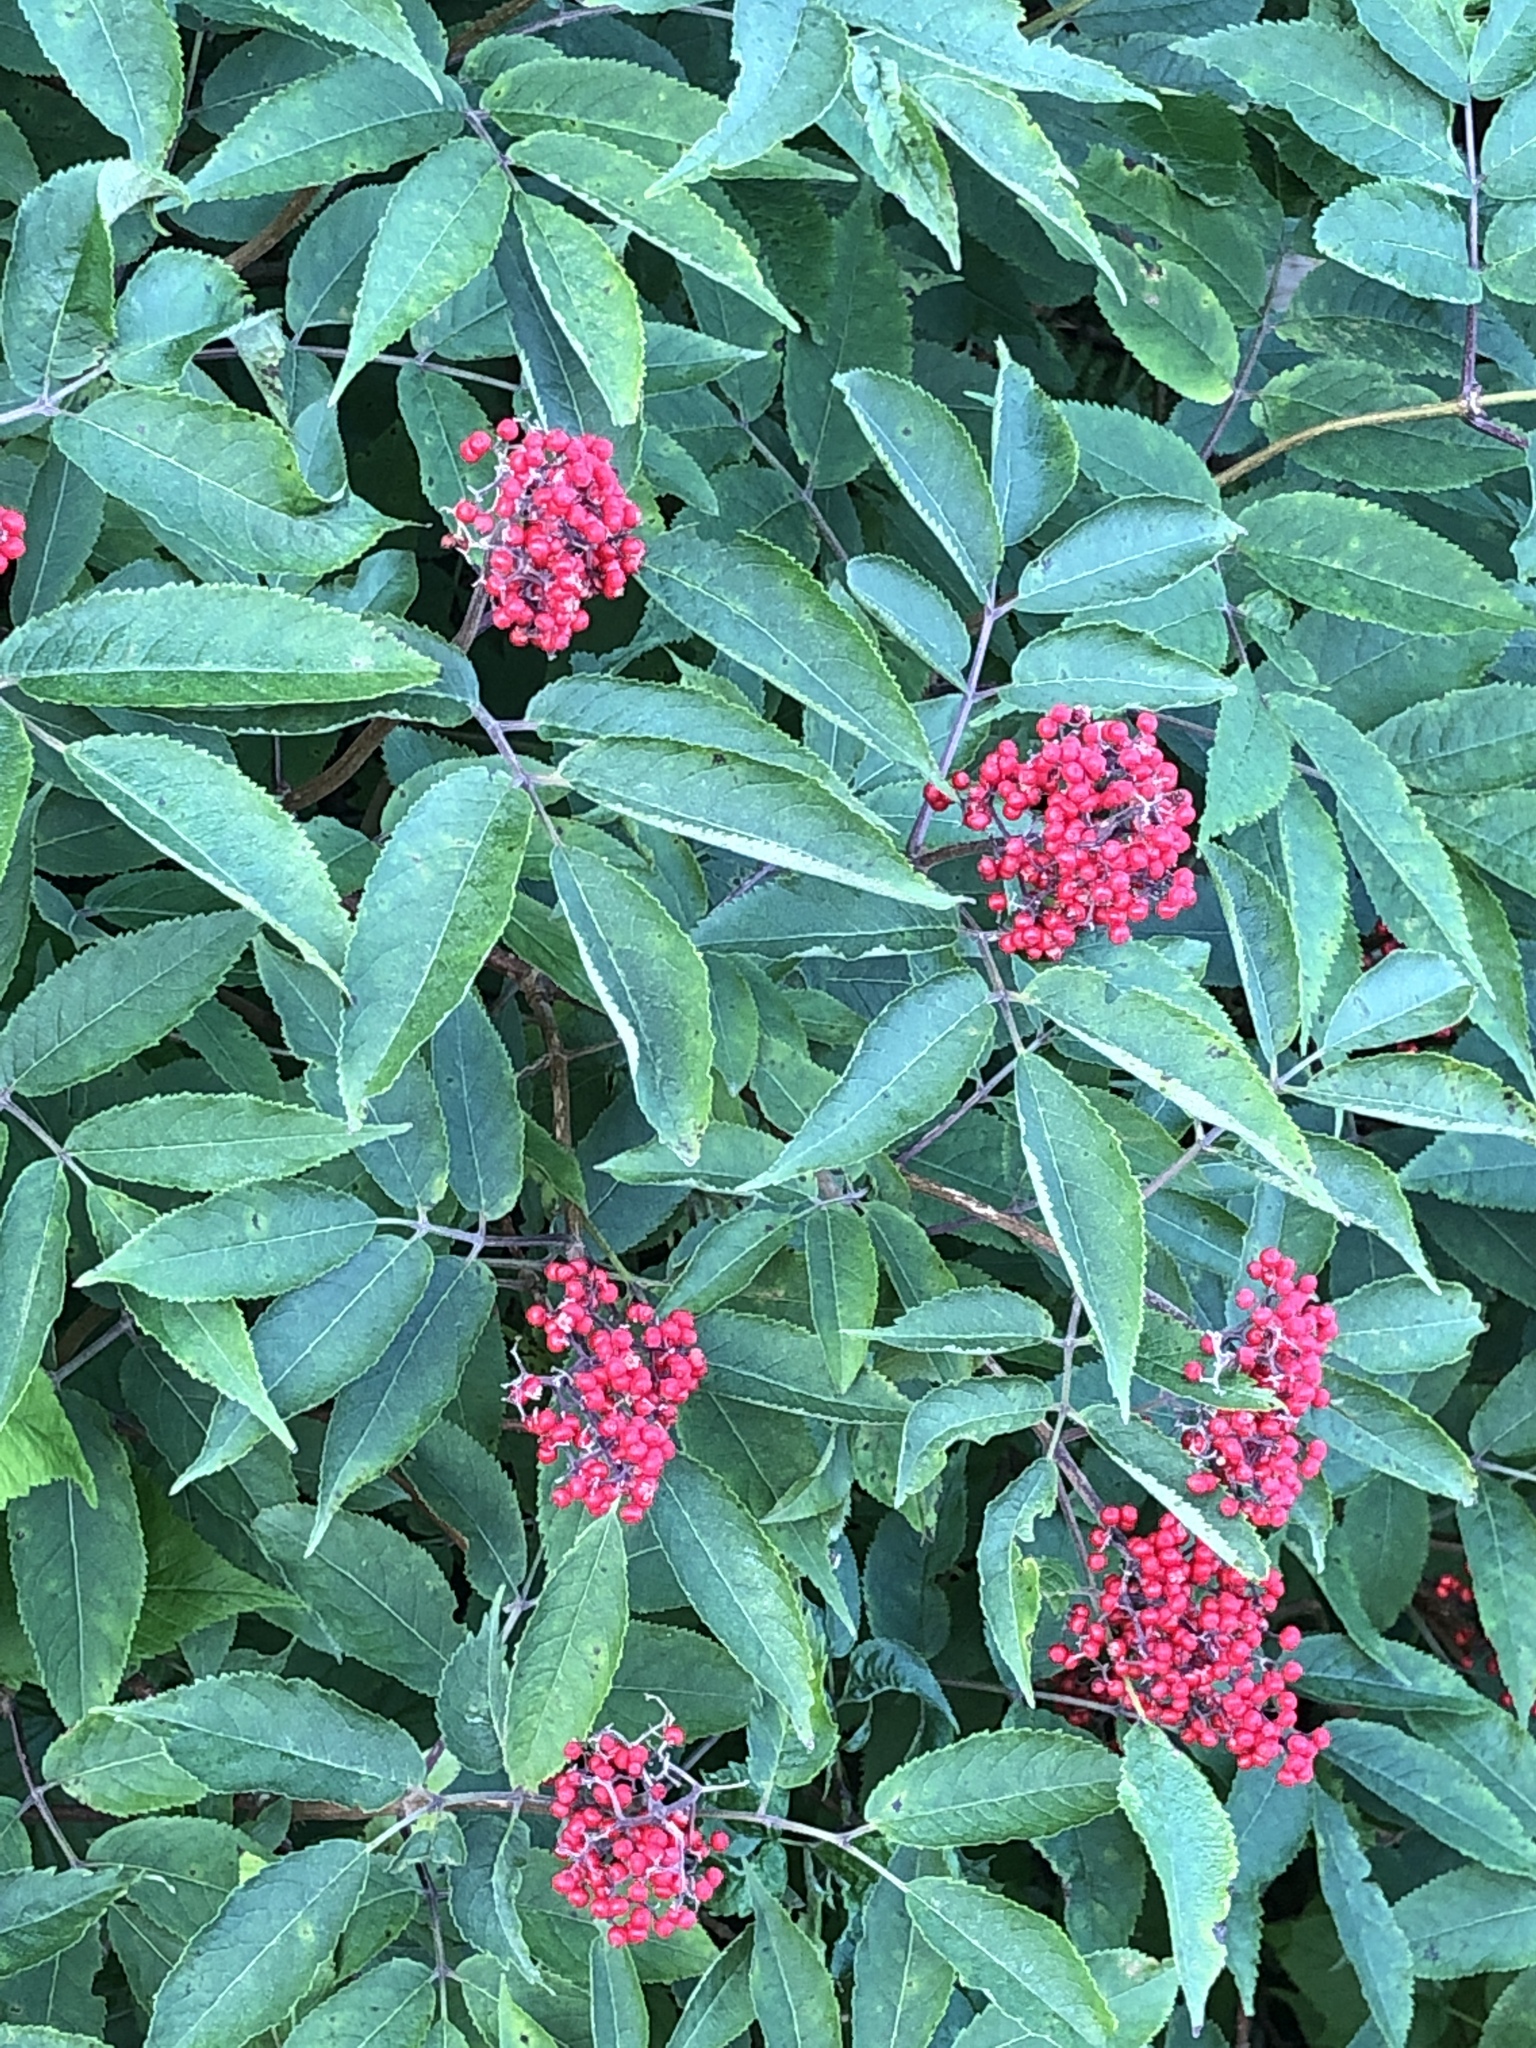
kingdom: Plantae
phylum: Tracheophyta
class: Magnoliopsida
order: Dipsacales
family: Viburnaceae
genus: Sambucus
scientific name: Sambucus racemosa
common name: Red-berried elder
